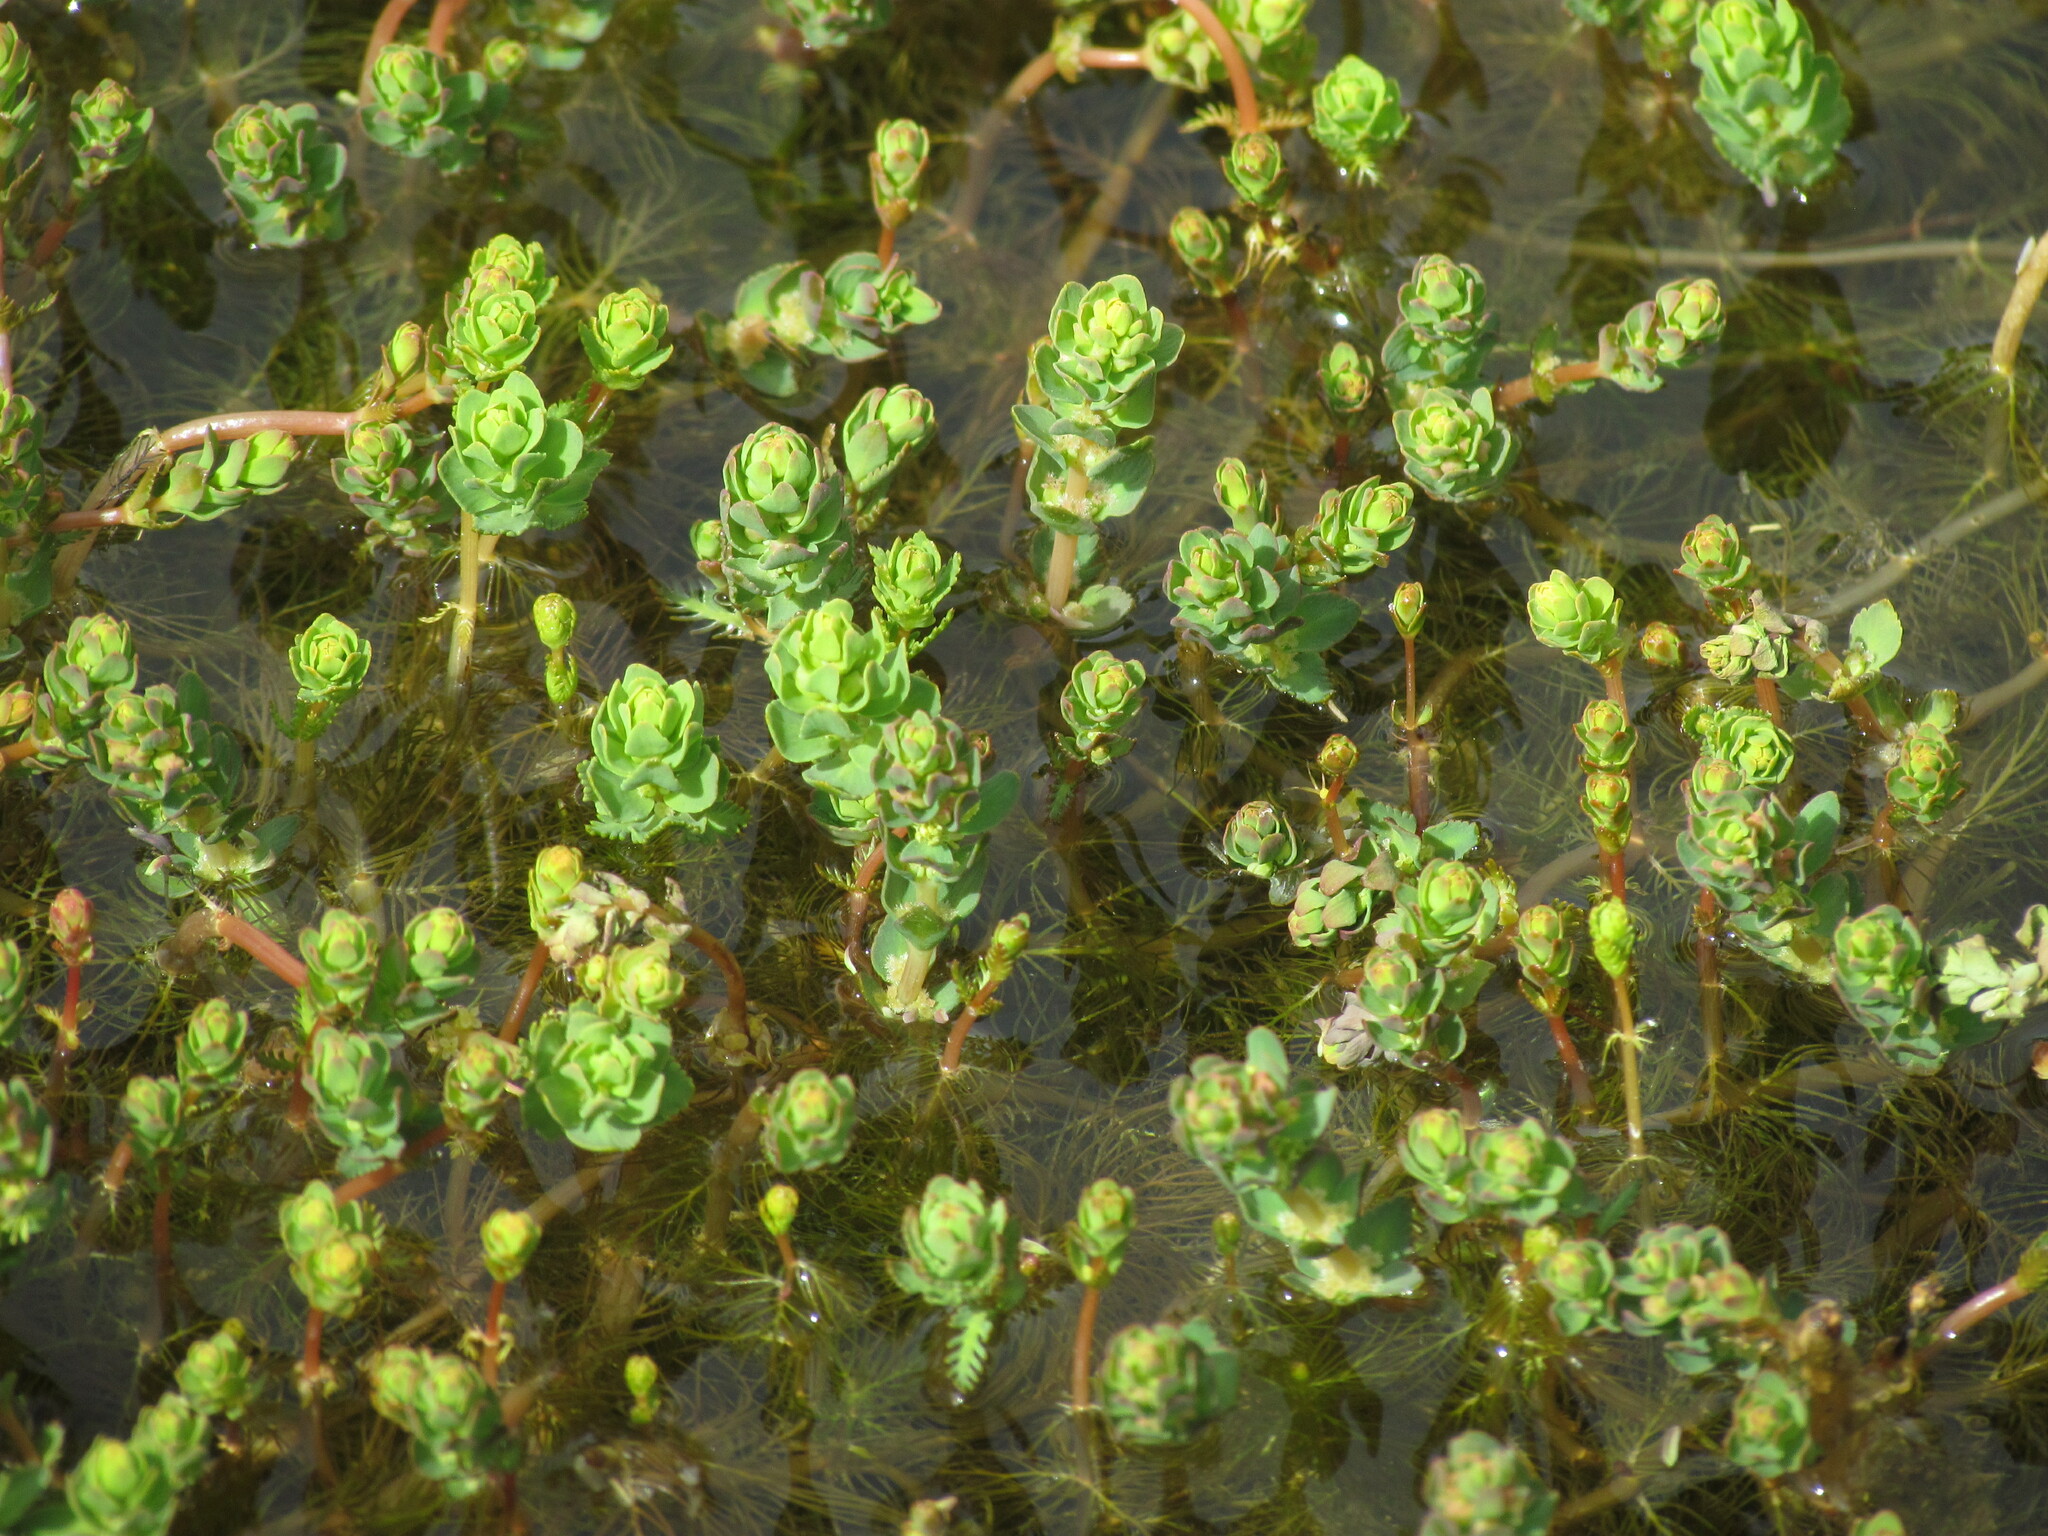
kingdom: Plantae
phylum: Tracheophyta
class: Magnoliopsida
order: Saxifragales
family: Haloragaceae
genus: Myriophyllum
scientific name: Myriophyllum quitense
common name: Andean water milfoil
